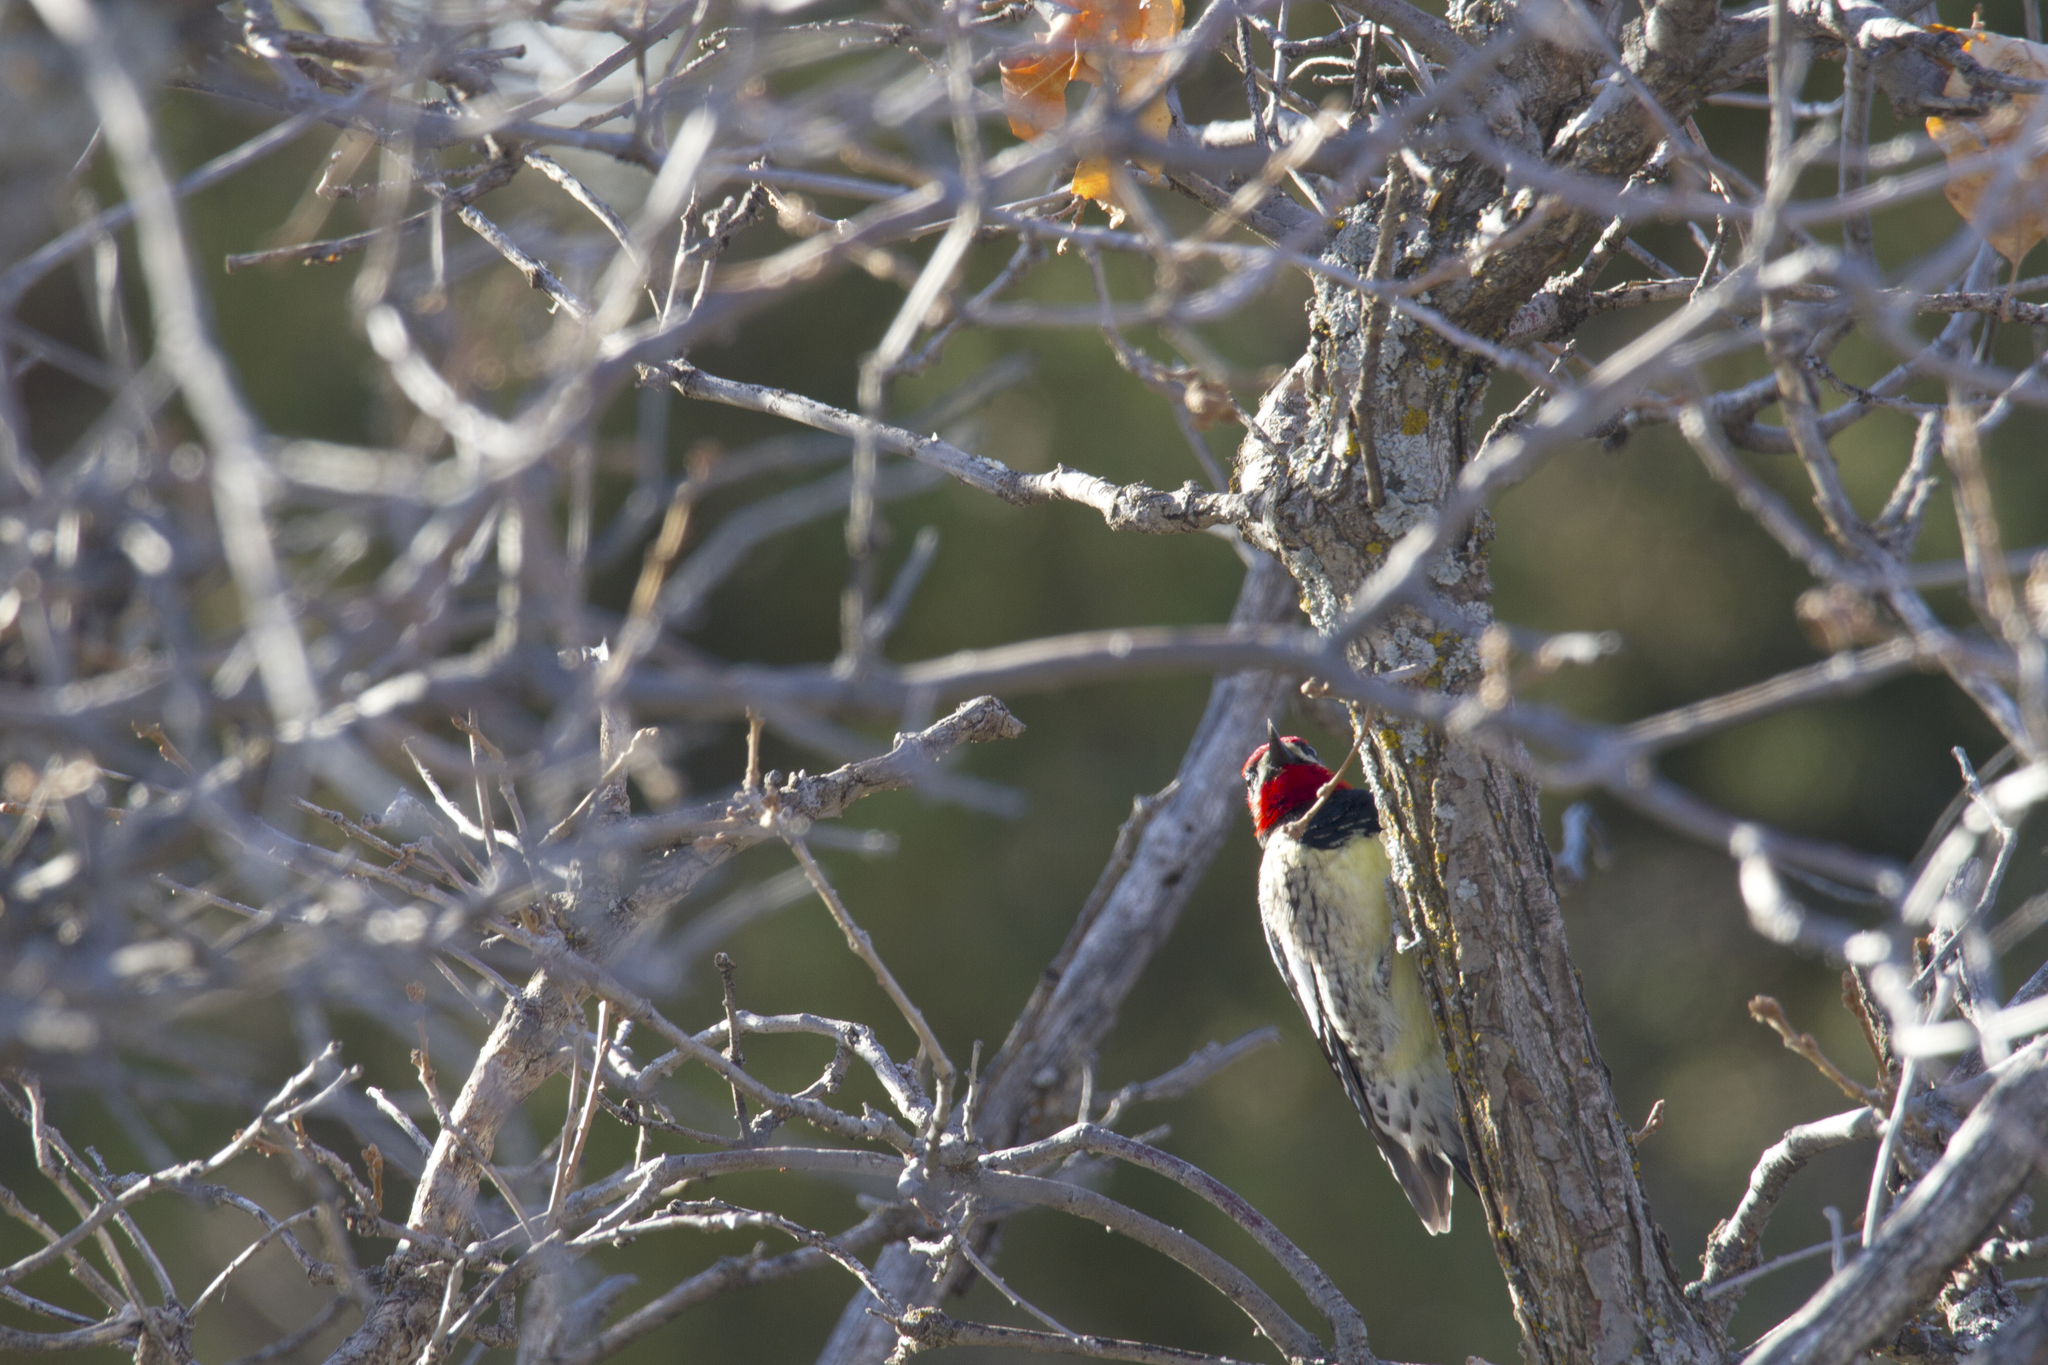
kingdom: Animalia
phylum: Chordata
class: Aves
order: Piciformes
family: Picidae
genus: Sphyrapicus
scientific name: Sphyrapicus nuchalis
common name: Red-naped sapsucker
